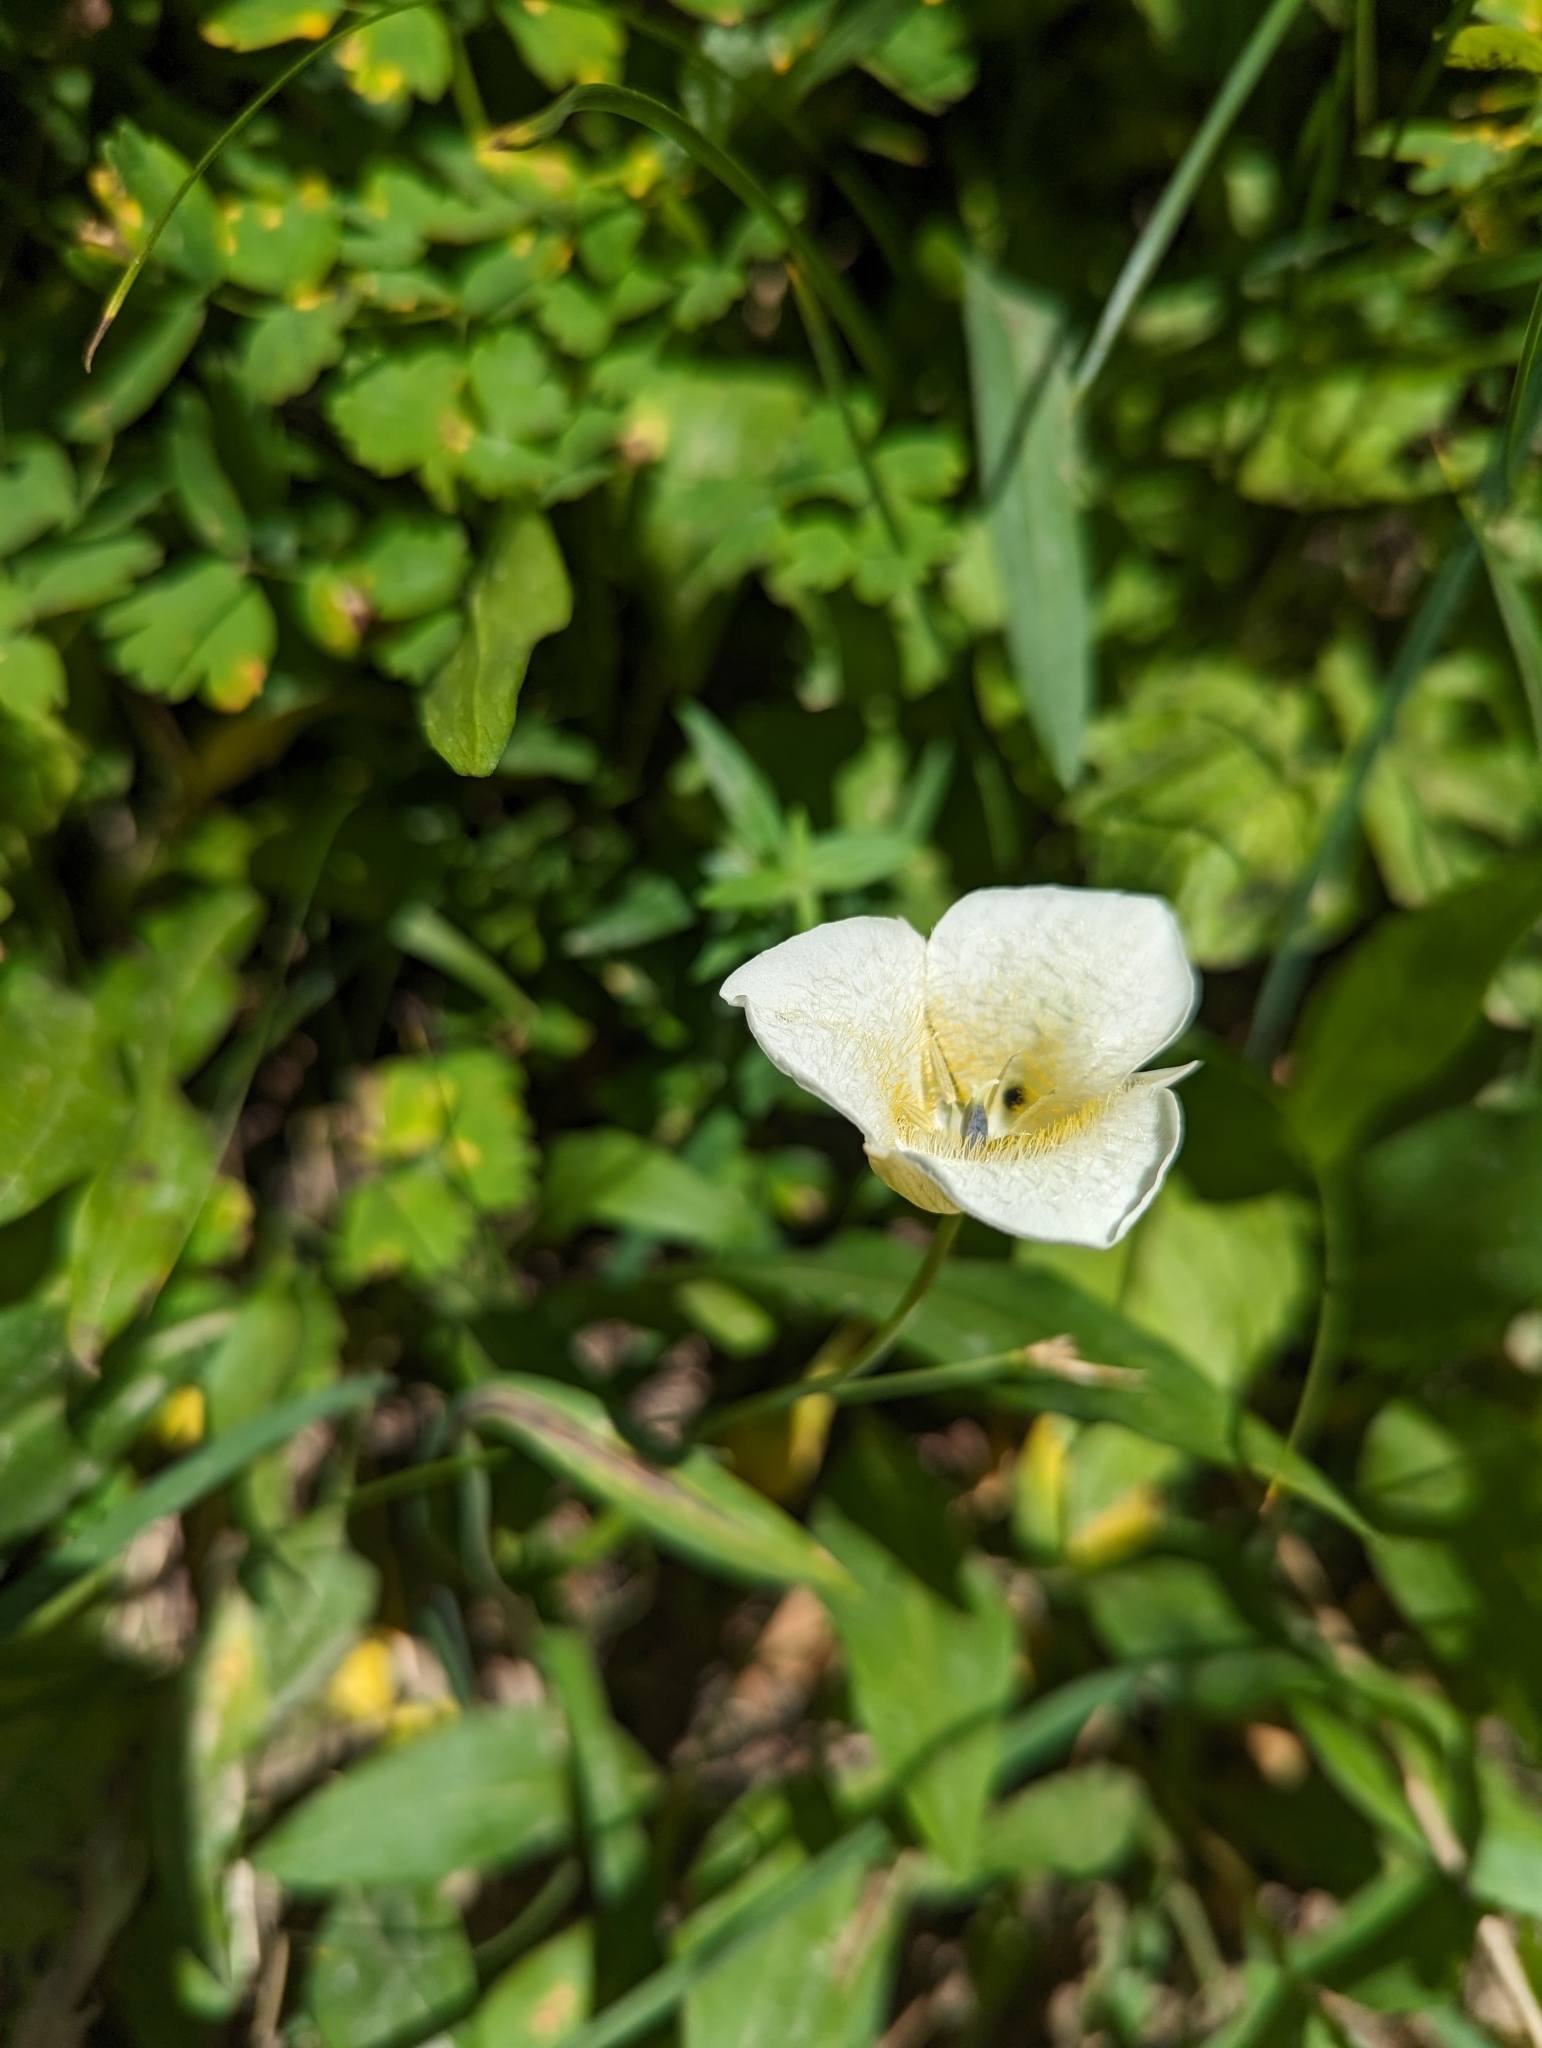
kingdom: Plantae
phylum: Tracheophyta
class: Liliopsida
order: Liliales
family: Liliaceae
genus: Calochortus
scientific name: Calochortus apiculatus
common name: Baker's mariposa lily
